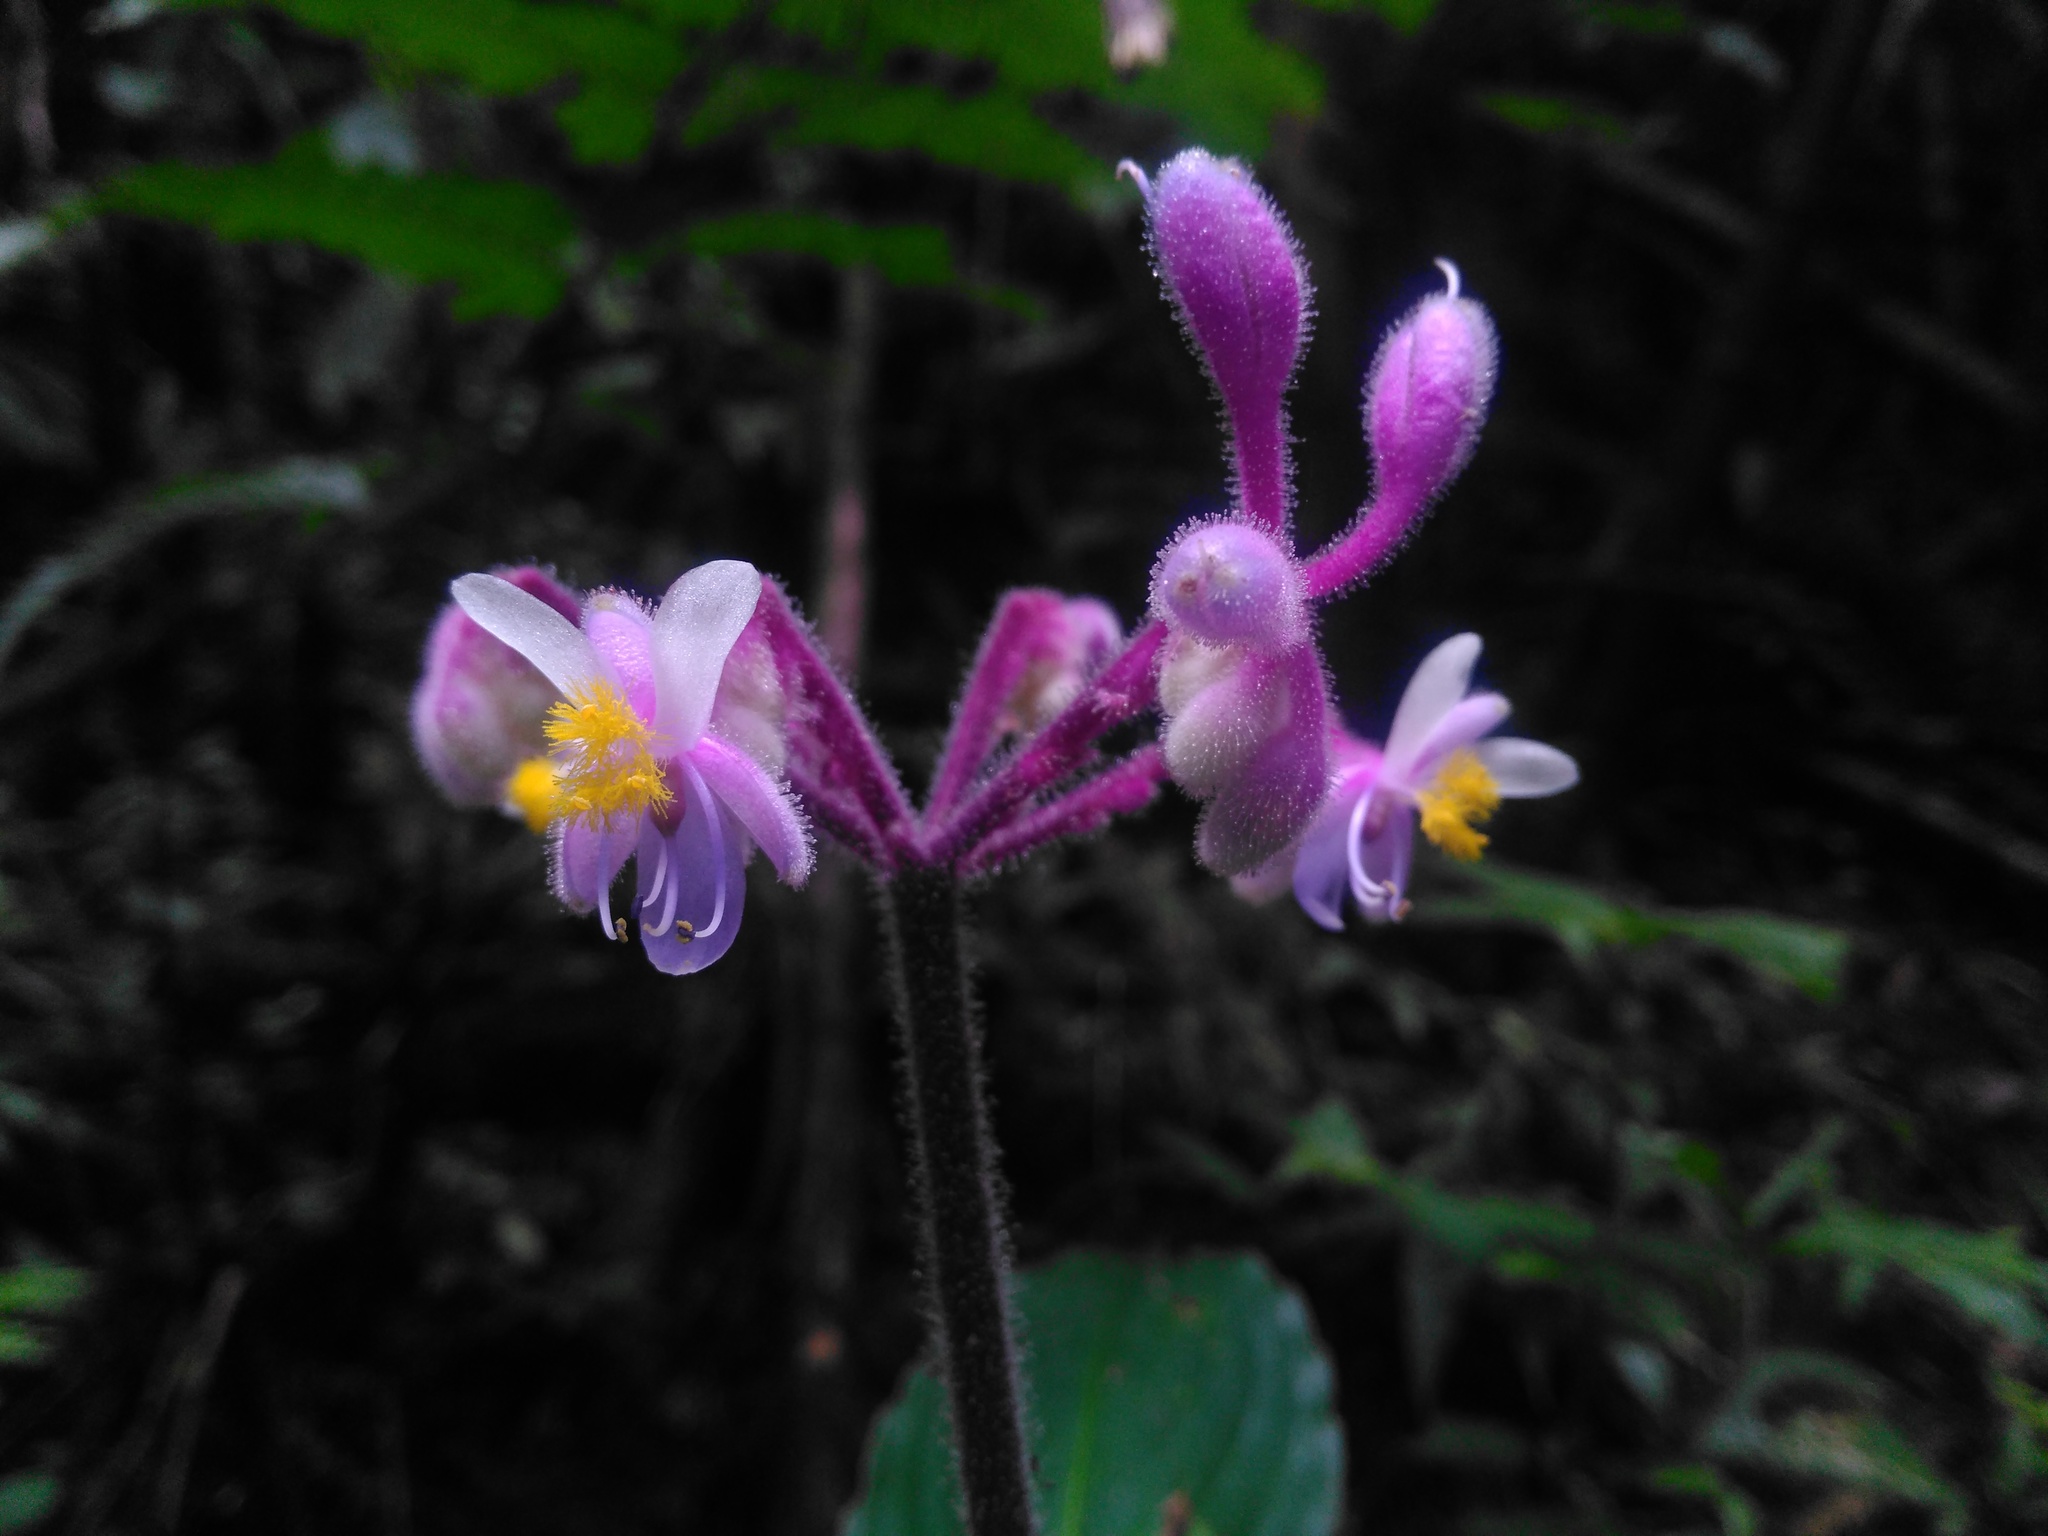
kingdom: Plantae
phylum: Tracheophyta
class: Liliopsida
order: Commelinales
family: Commelinaceae
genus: Tinantia
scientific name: Tinantia standleyi
